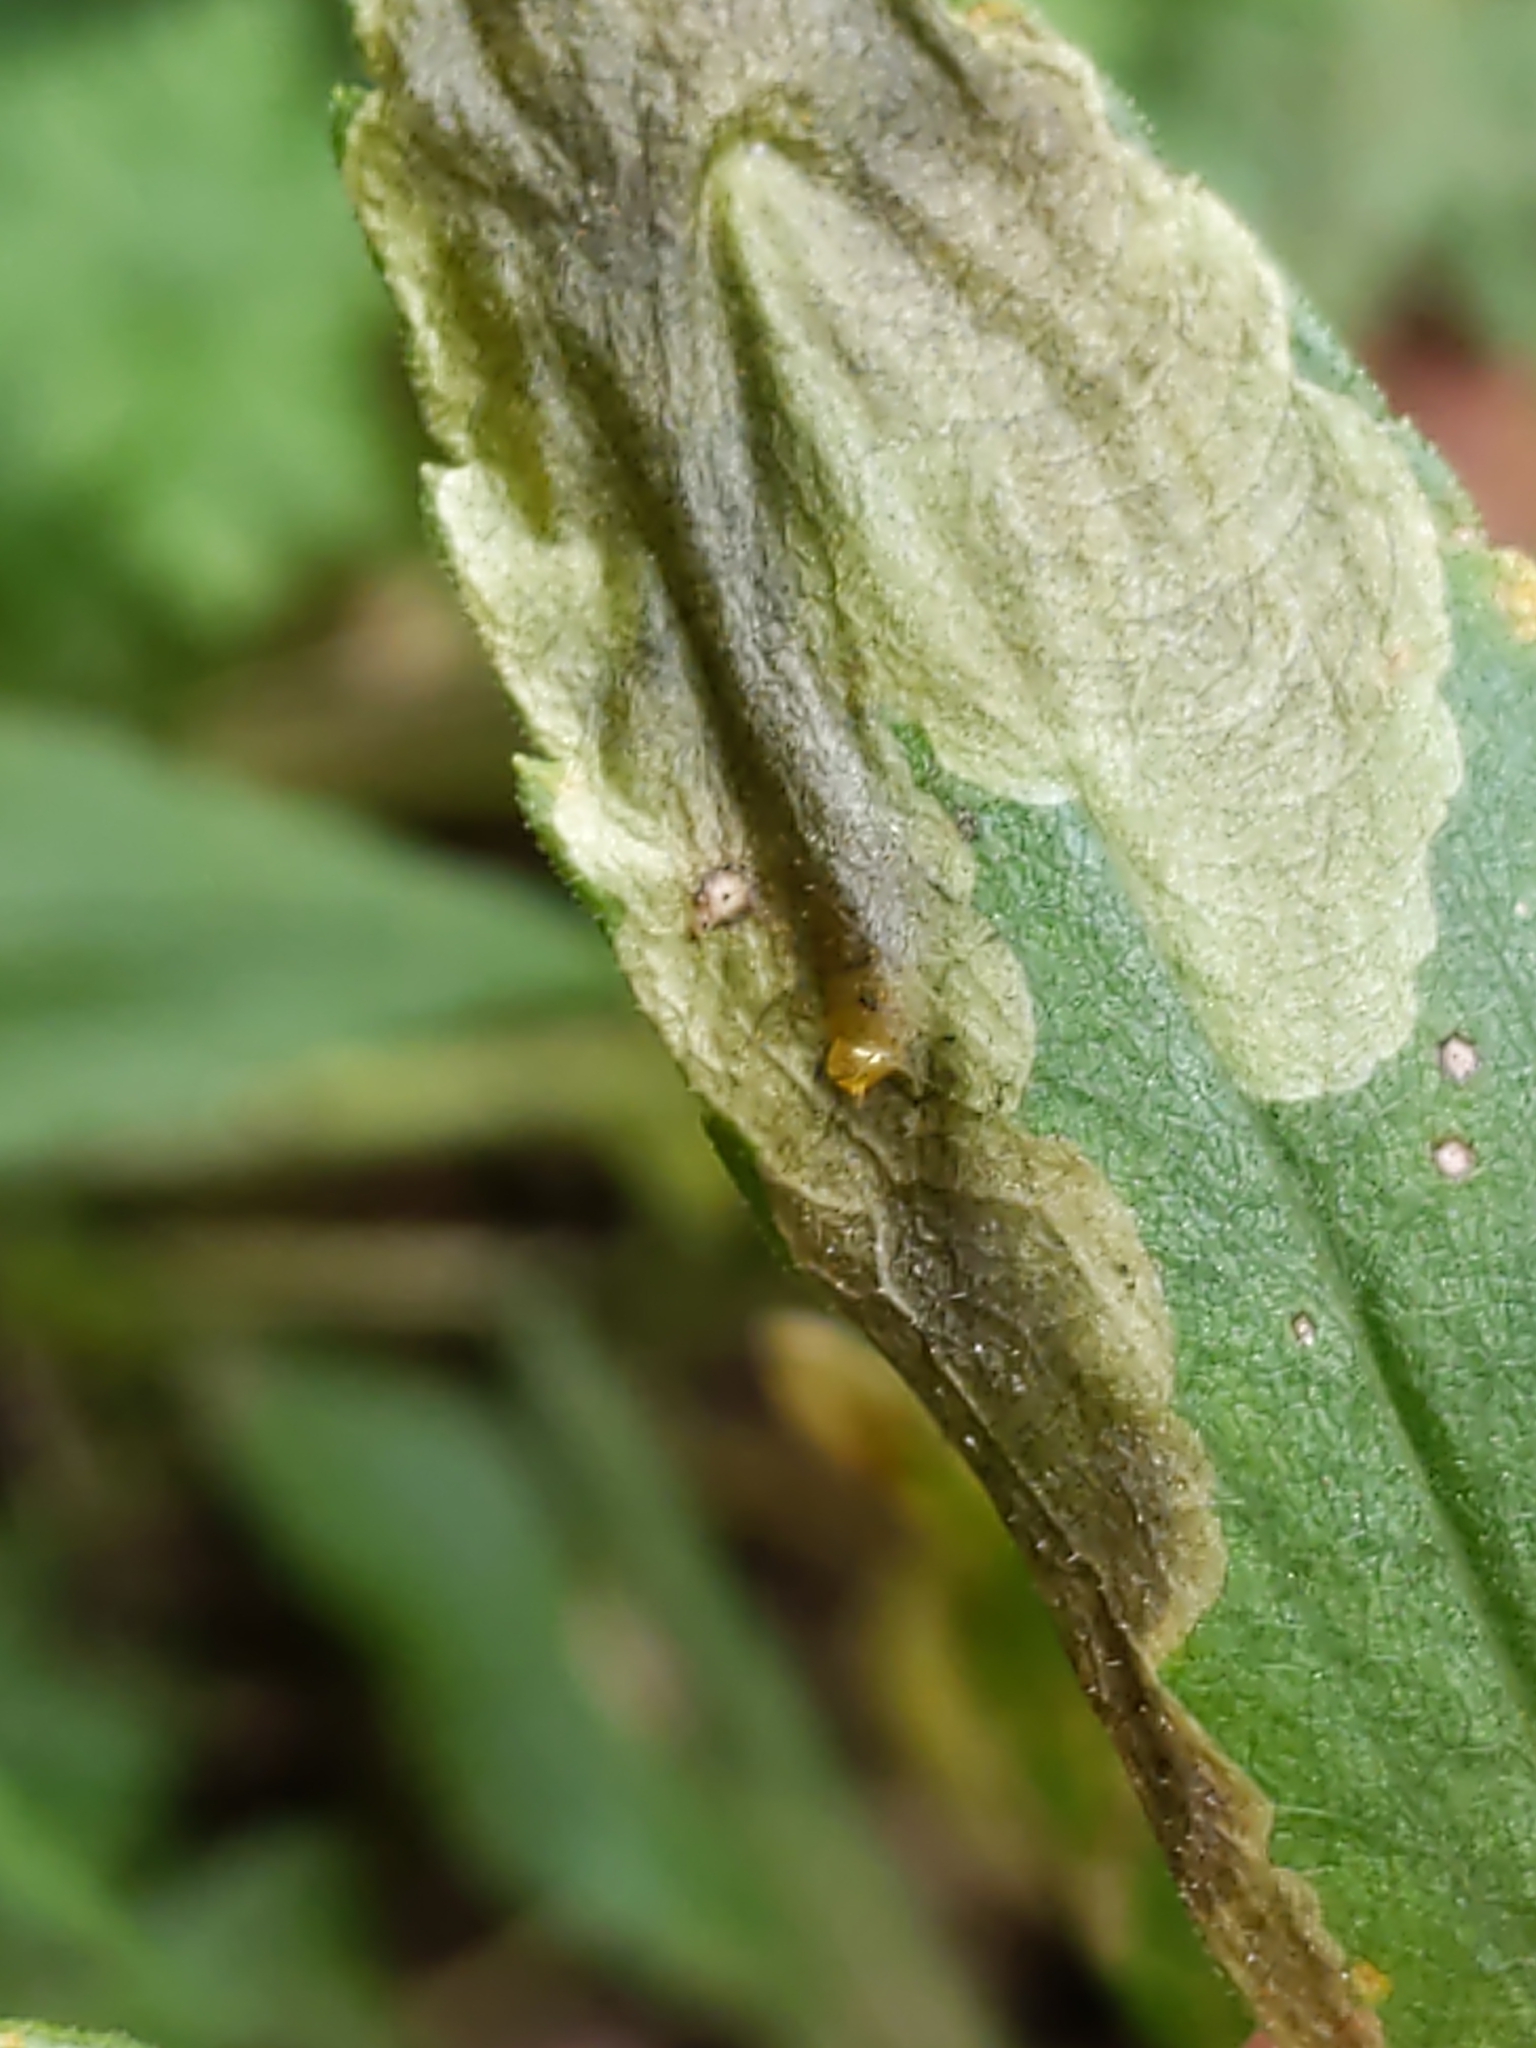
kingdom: Animalia
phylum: Arthropoda
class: Insecta
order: Diptera
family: Agromyzidae
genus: Nemorimyza
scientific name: Nemorimyza posticata
